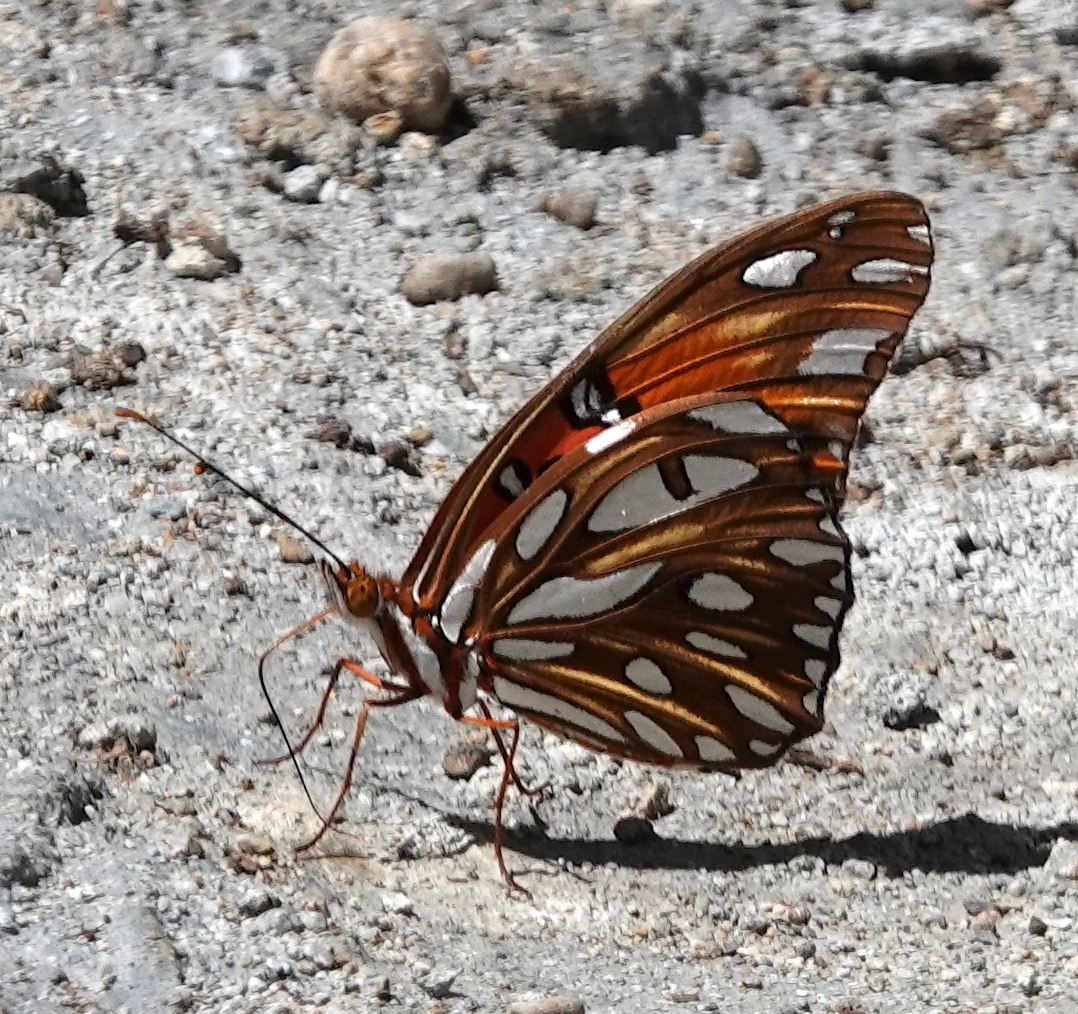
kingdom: Animalia
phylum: Arthropoda
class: Insecta
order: Lepidoptera
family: Nymphalidae
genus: Dione
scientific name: Dione vanillae
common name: Gulf fritillary
